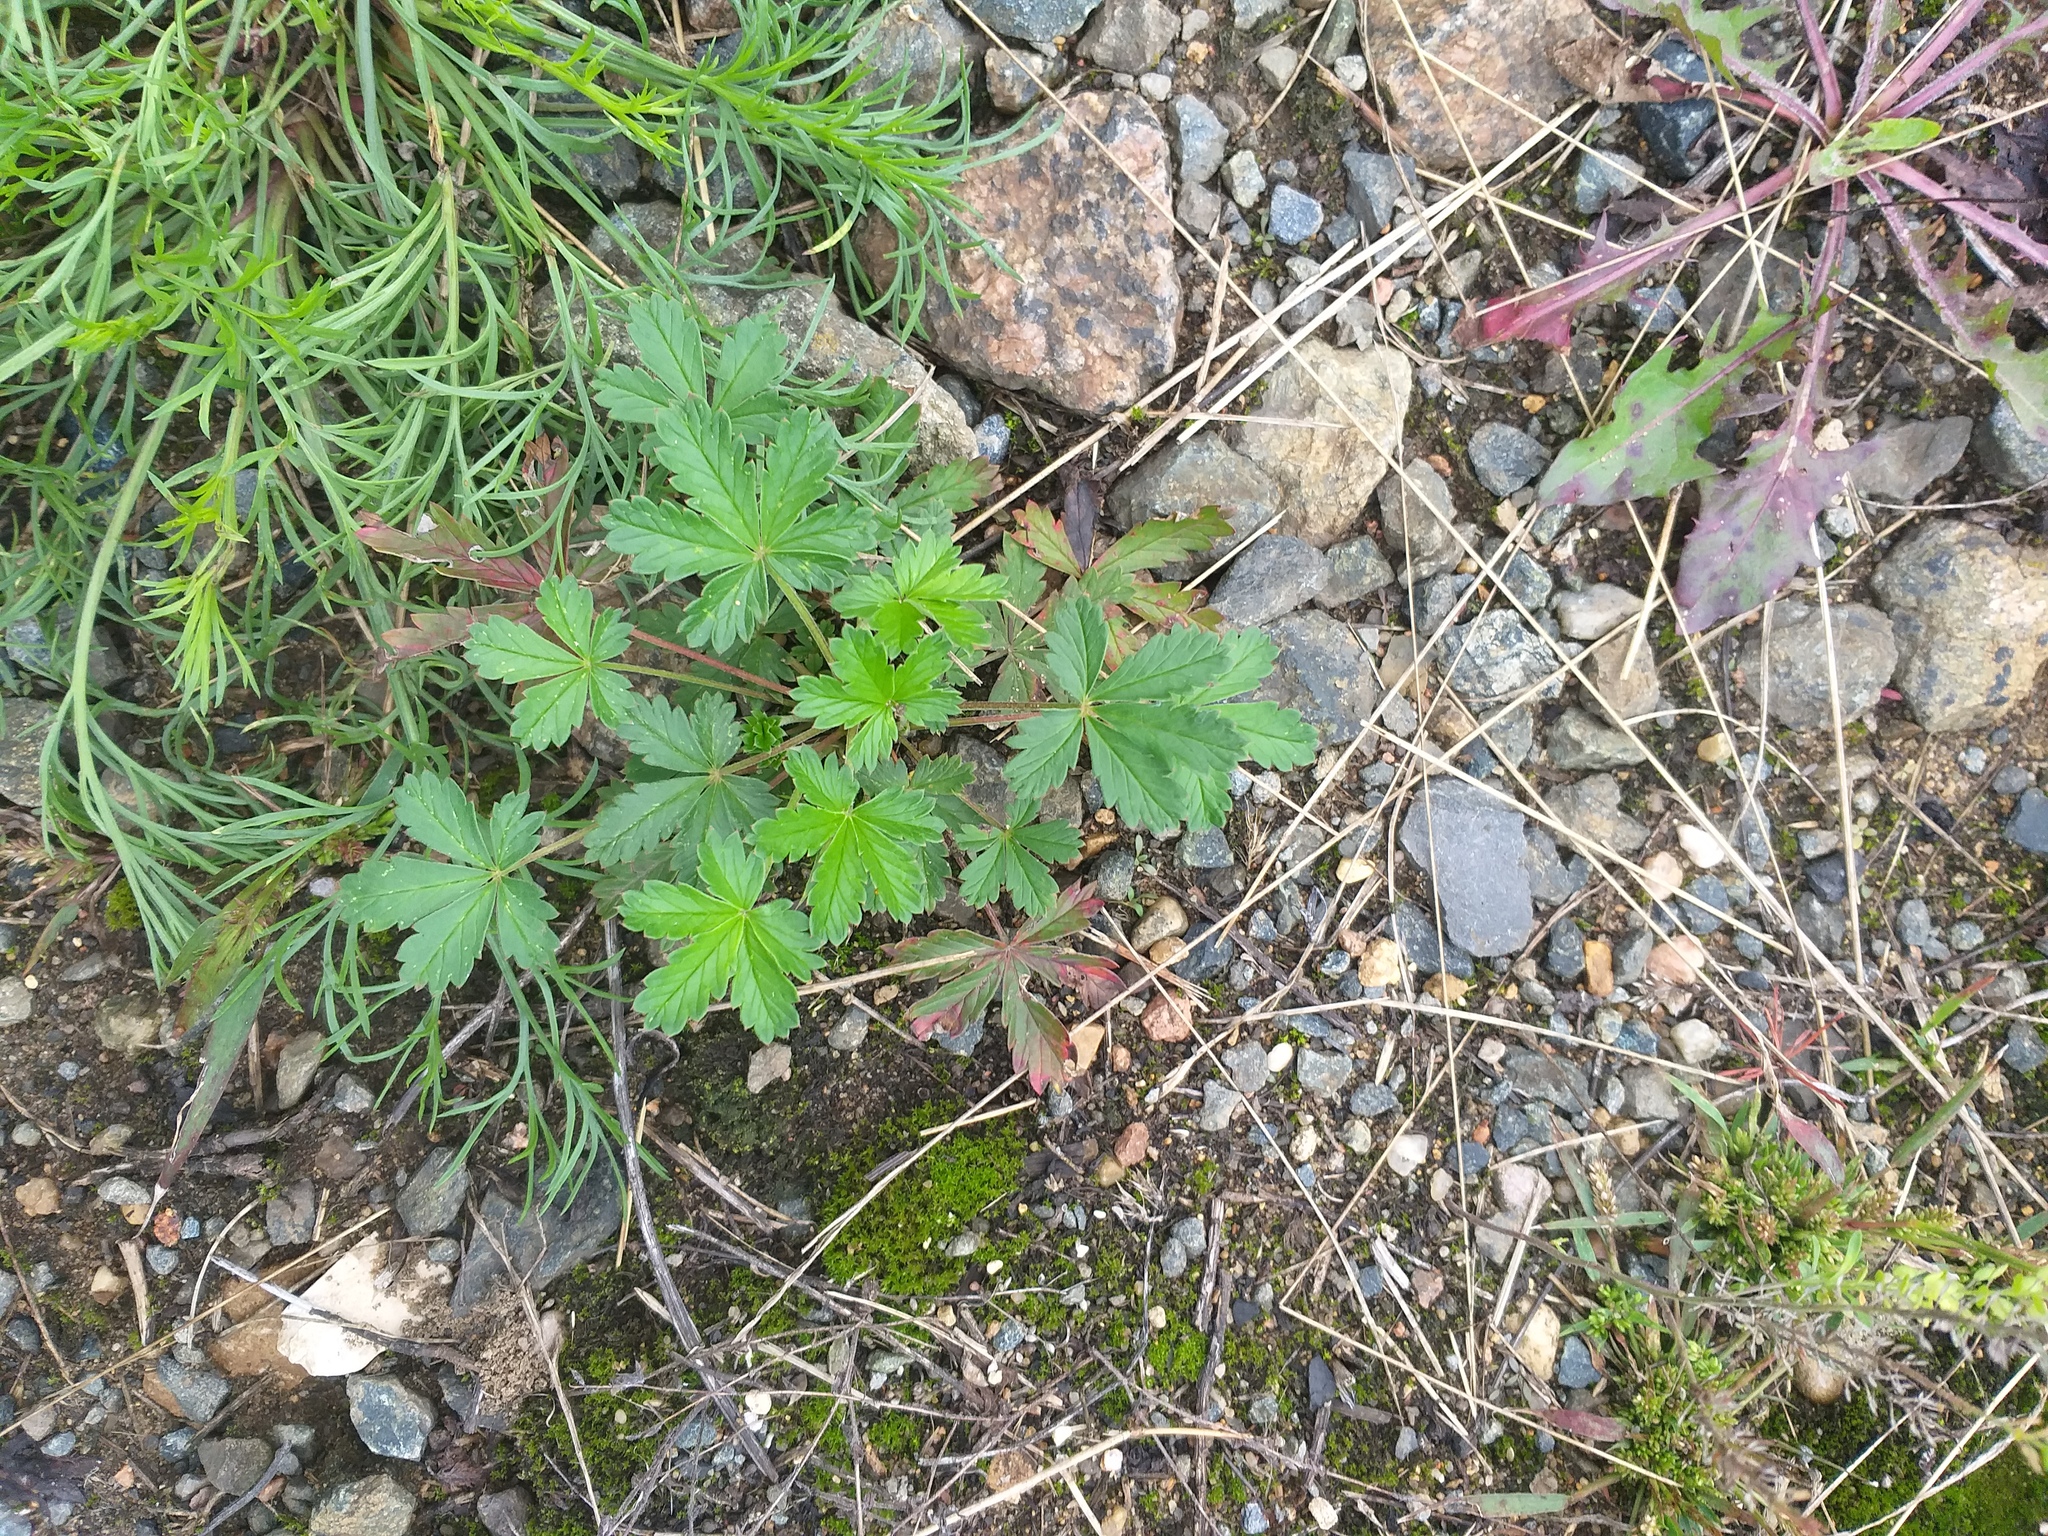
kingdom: Plantae
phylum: Tracheophyta
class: Magnoliopsida
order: Rosales
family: Rosaceae
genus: Potentilla
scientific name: Potentilla argentea
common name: Hoary cinquefoil
